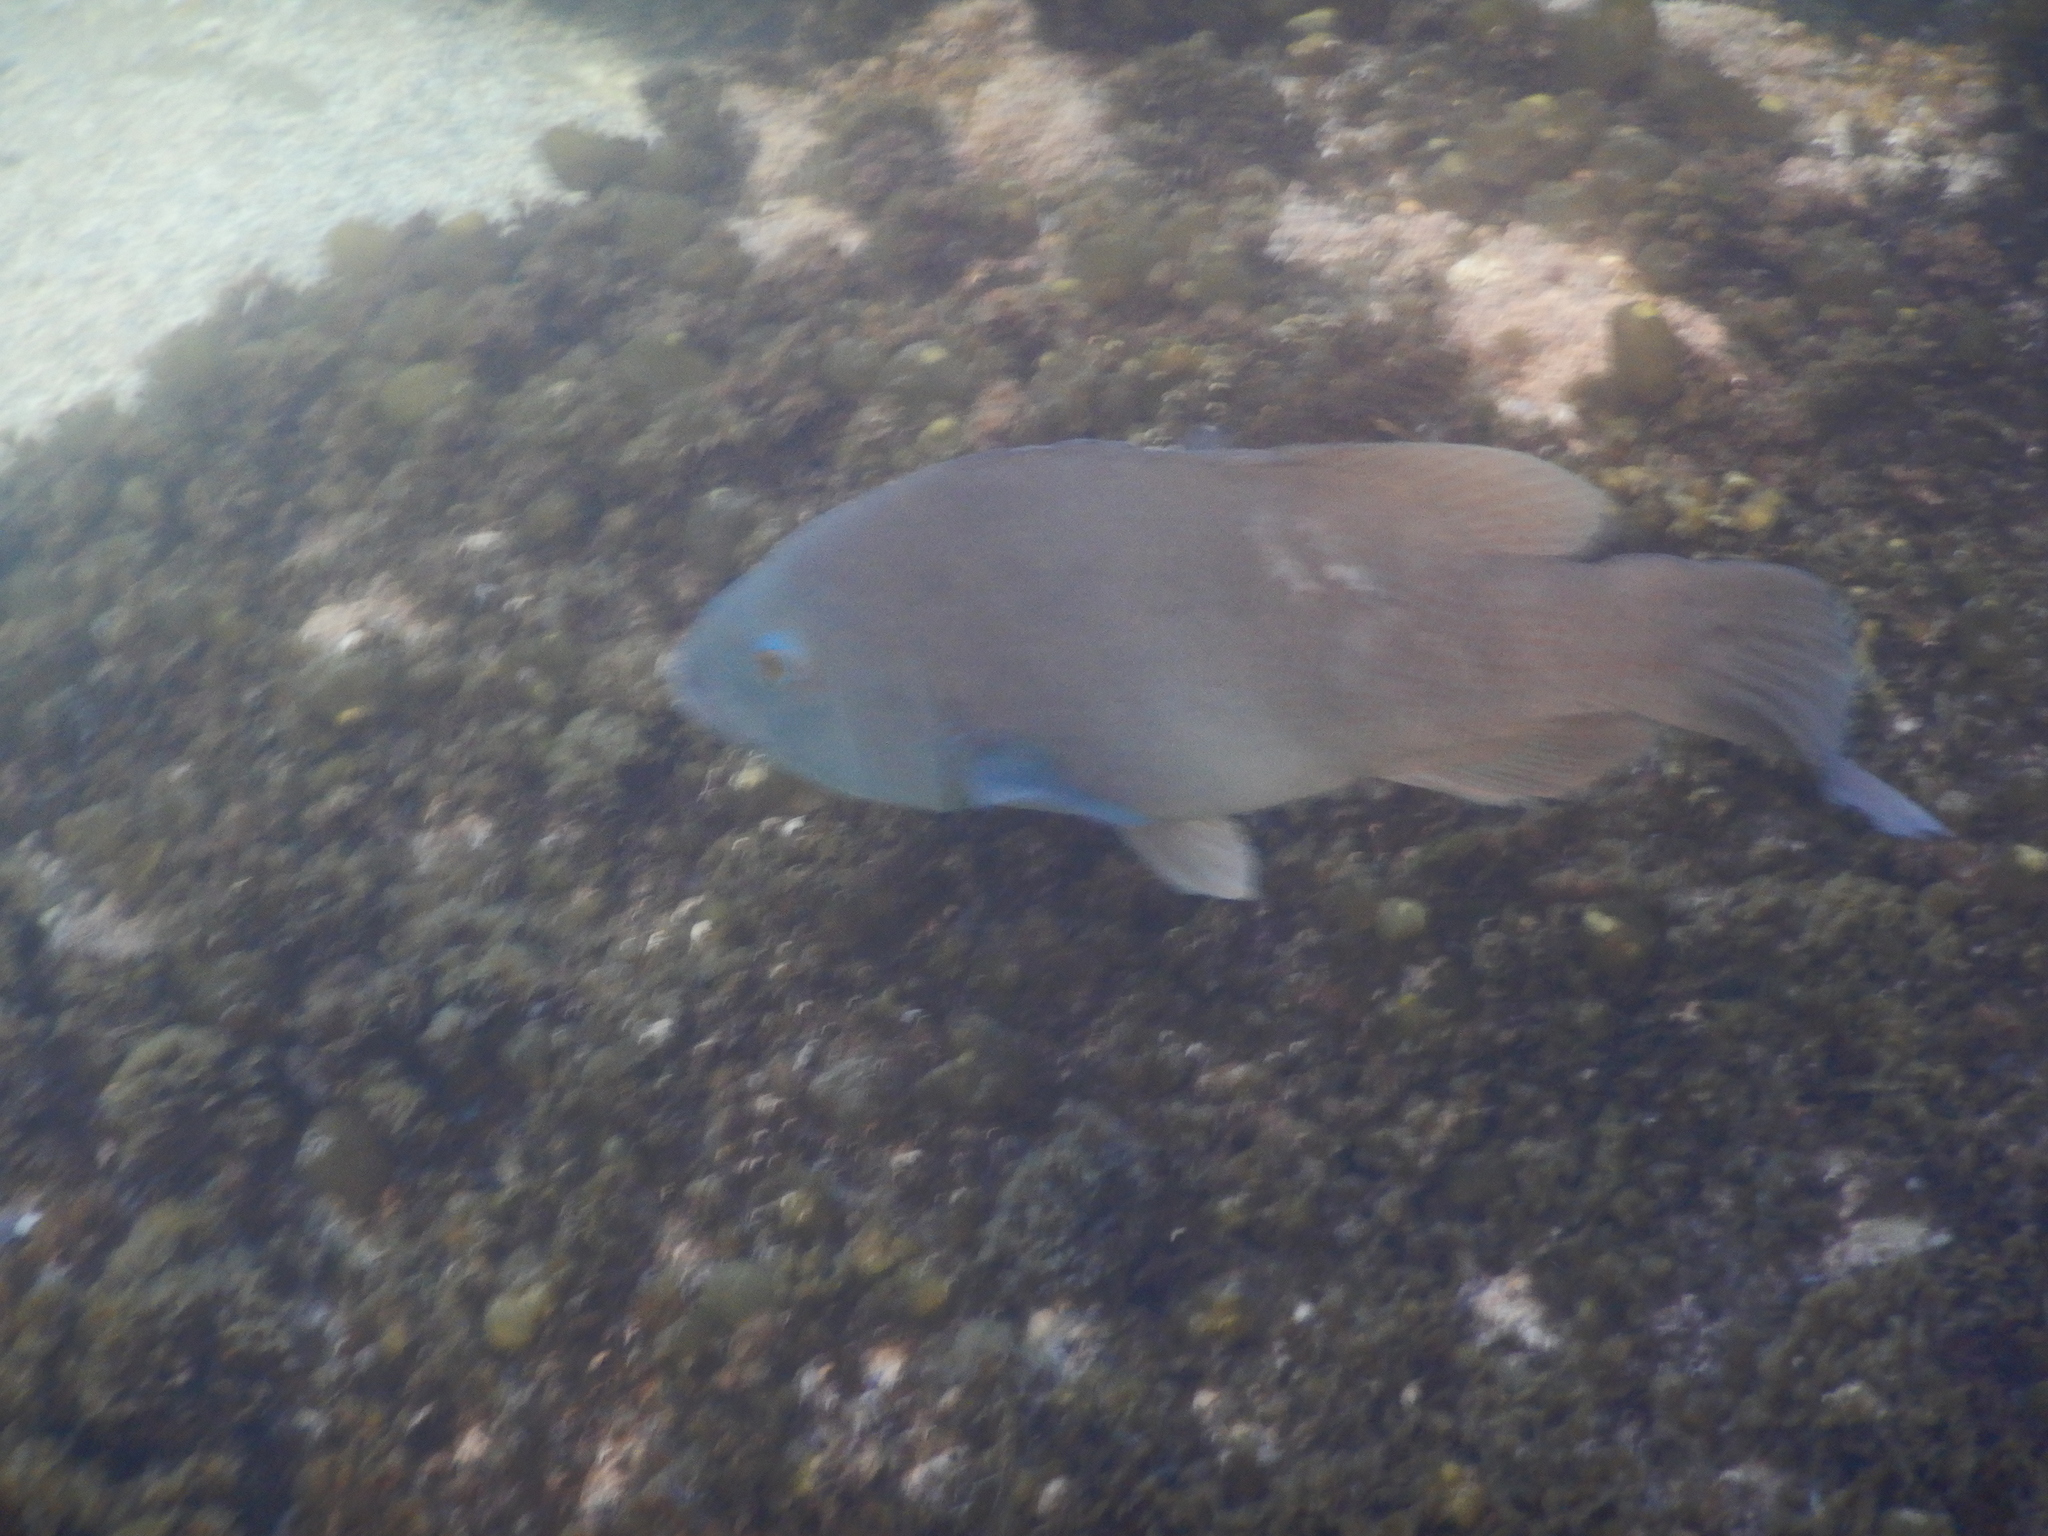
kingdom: Animalia
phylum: Chordata
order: Perciformes
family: Labridae
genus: Achoerodus
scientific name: Achoerodus viridis
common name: Brown groper
